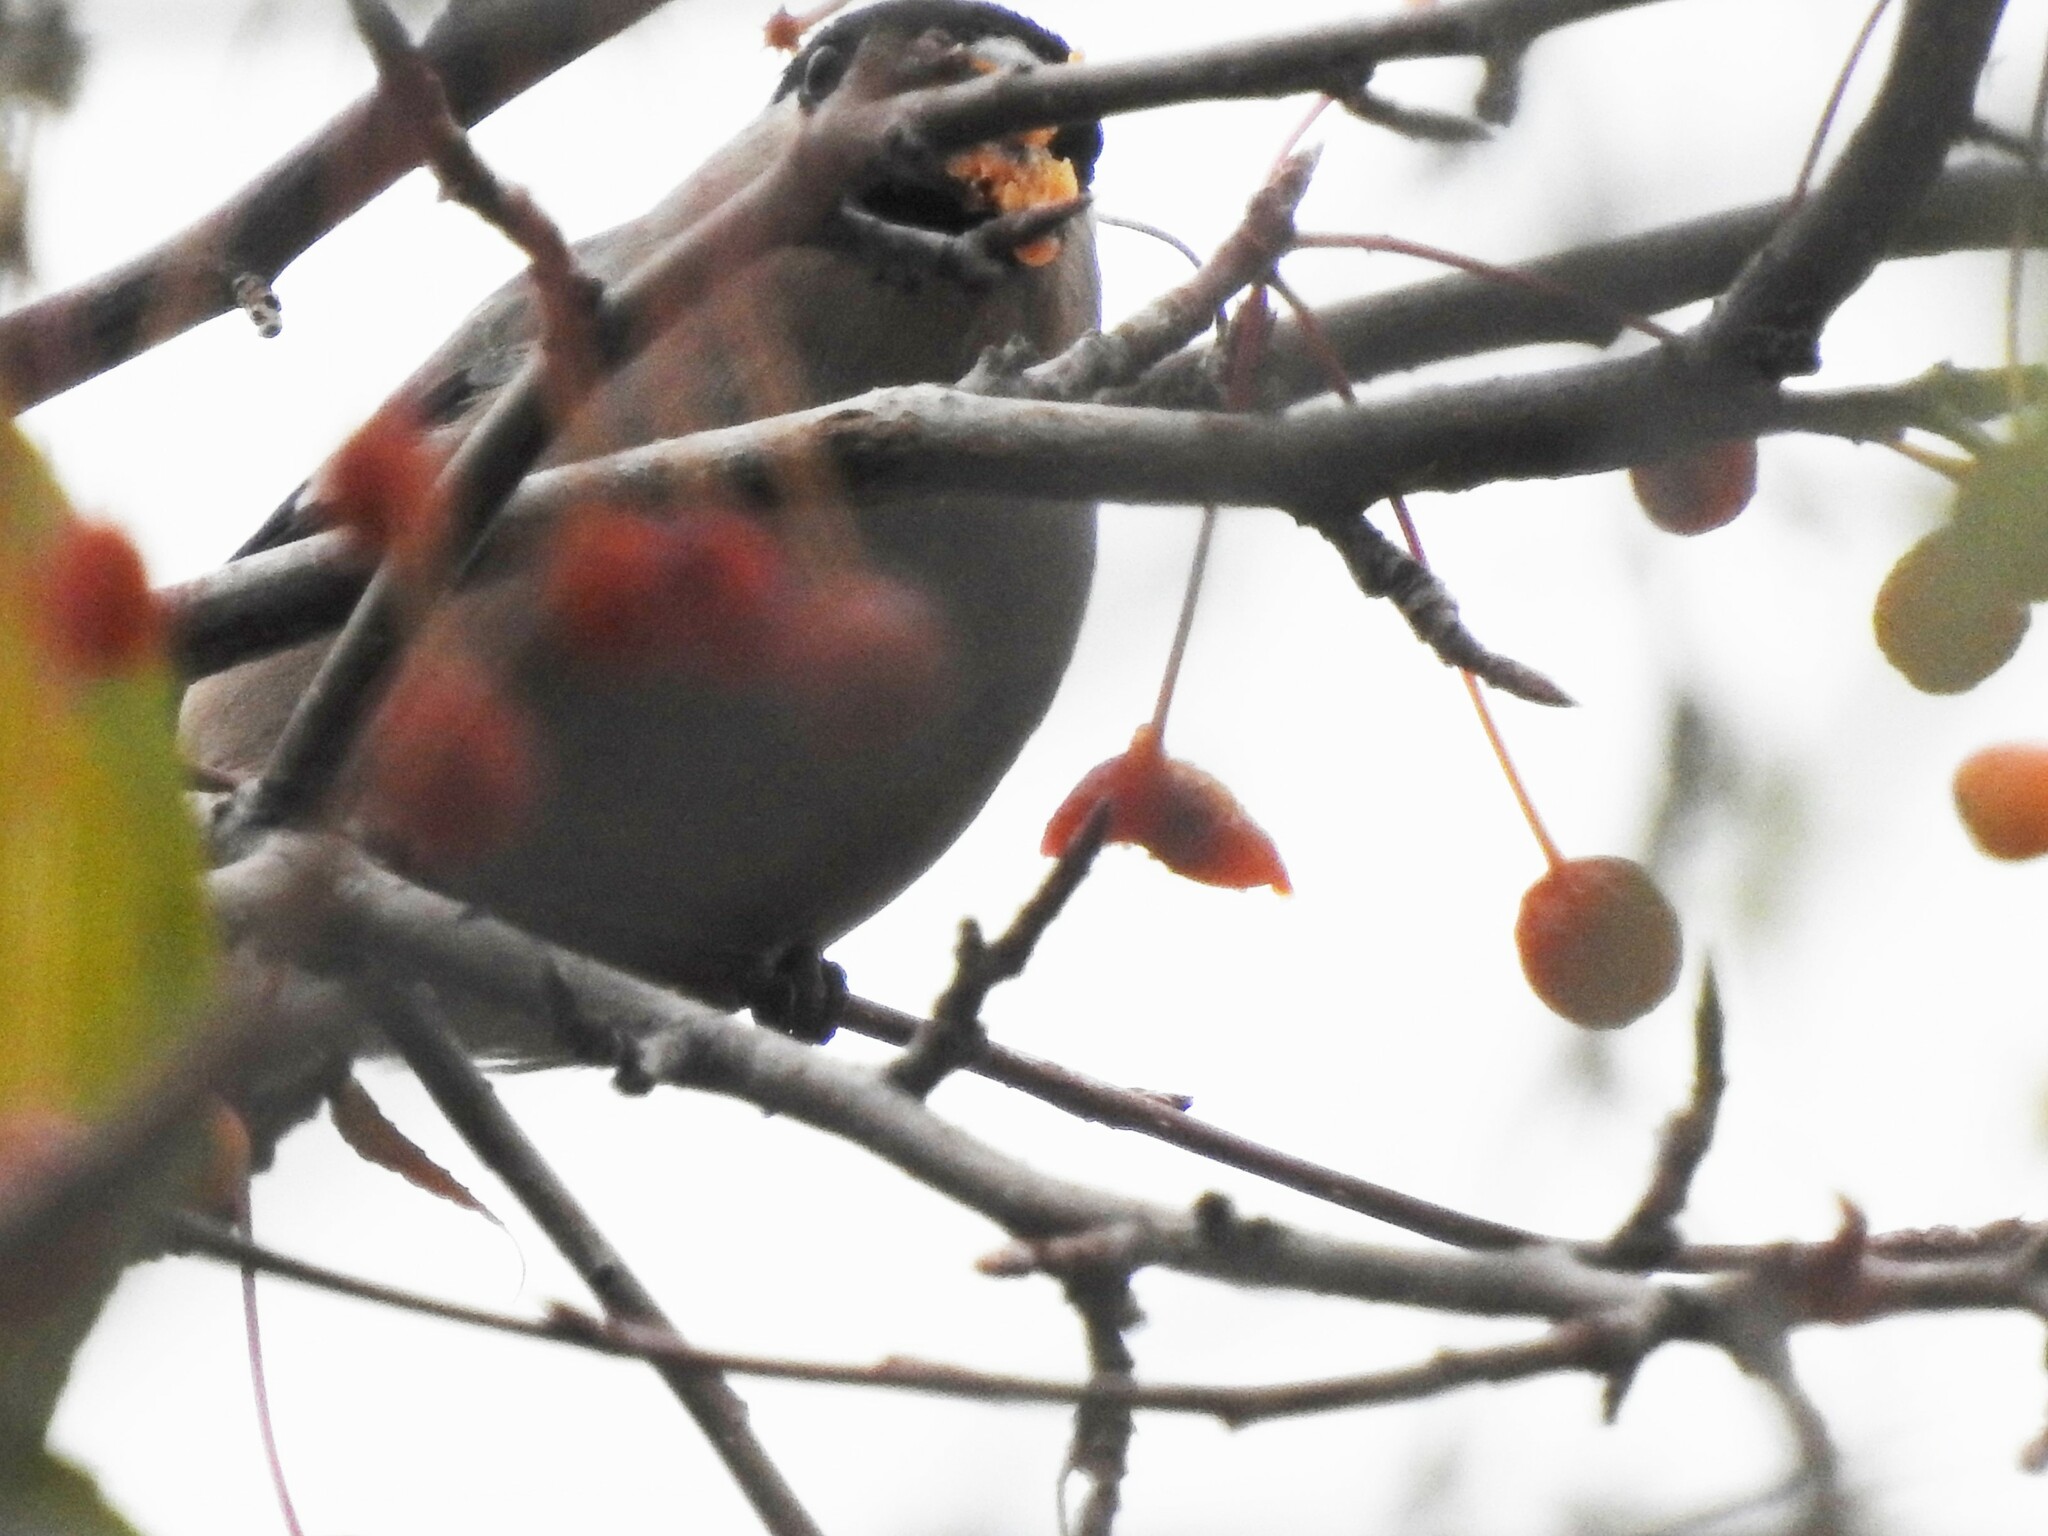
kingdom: Animalia
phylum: Chordata
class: Aves
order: Passeriformes
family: Fringillidae
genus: Pyrrhula
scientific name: Pyrrhula pyrrhula
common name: Eurasian bullfinch
